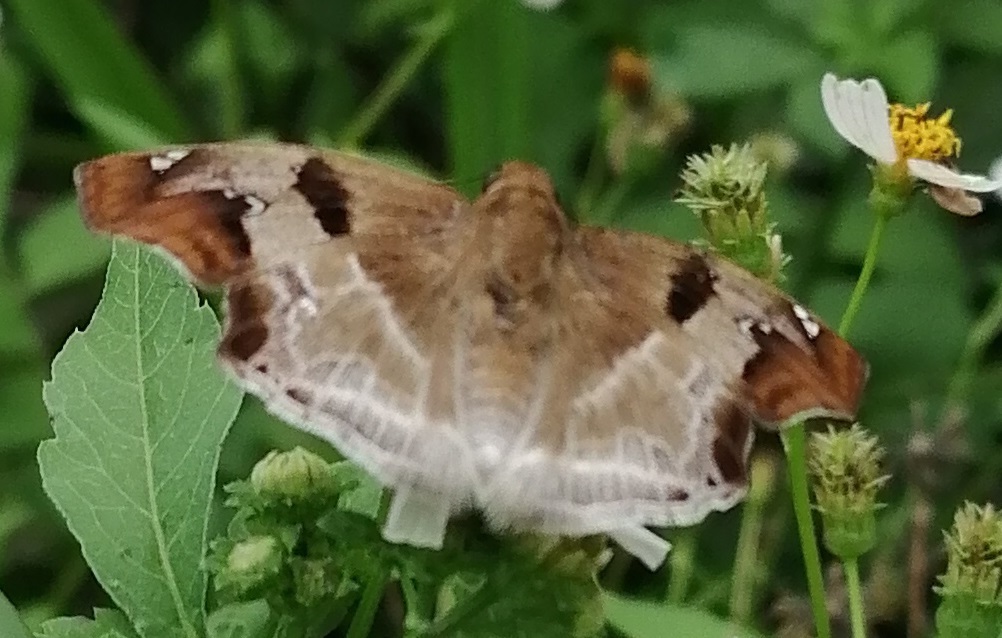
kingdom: Animalia
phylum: Arthropoda
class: Insecta
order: Lepidoptera
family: Hesperiidae
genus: Odontoptilum
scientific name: Odontoptilum angulata
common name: Chestnut banded angle
